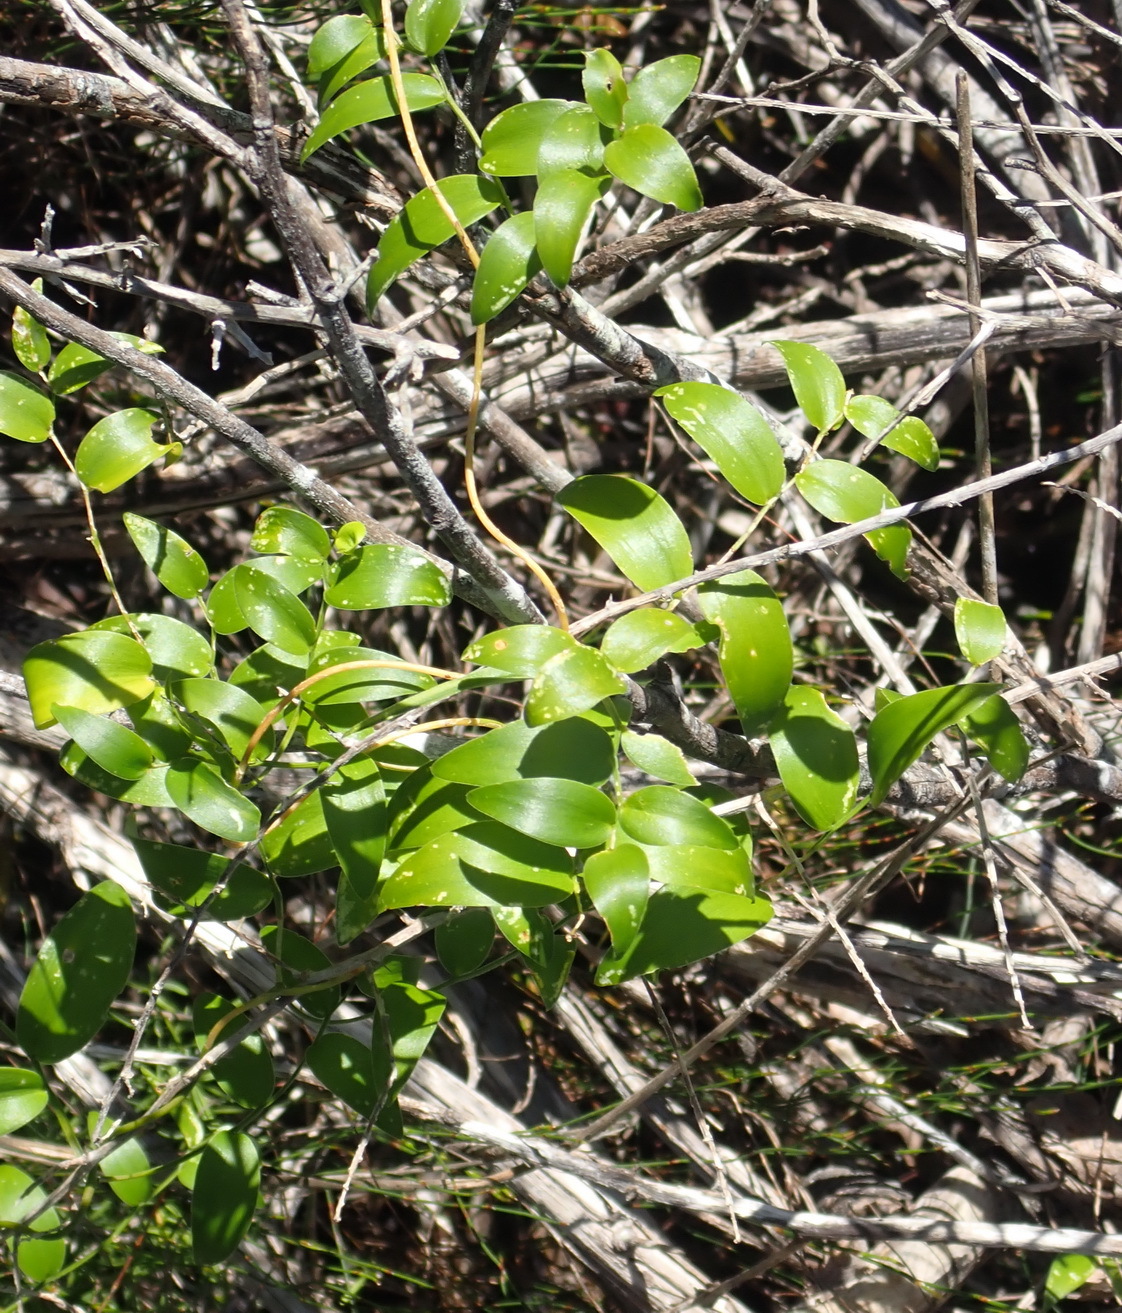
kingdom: Plantae
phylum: Tracheophyta
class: Liliopsida
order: Asparagales
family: Asparagaceae
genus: Asparagus
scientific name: Asparagus asparagoides
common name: African asparagus fern
